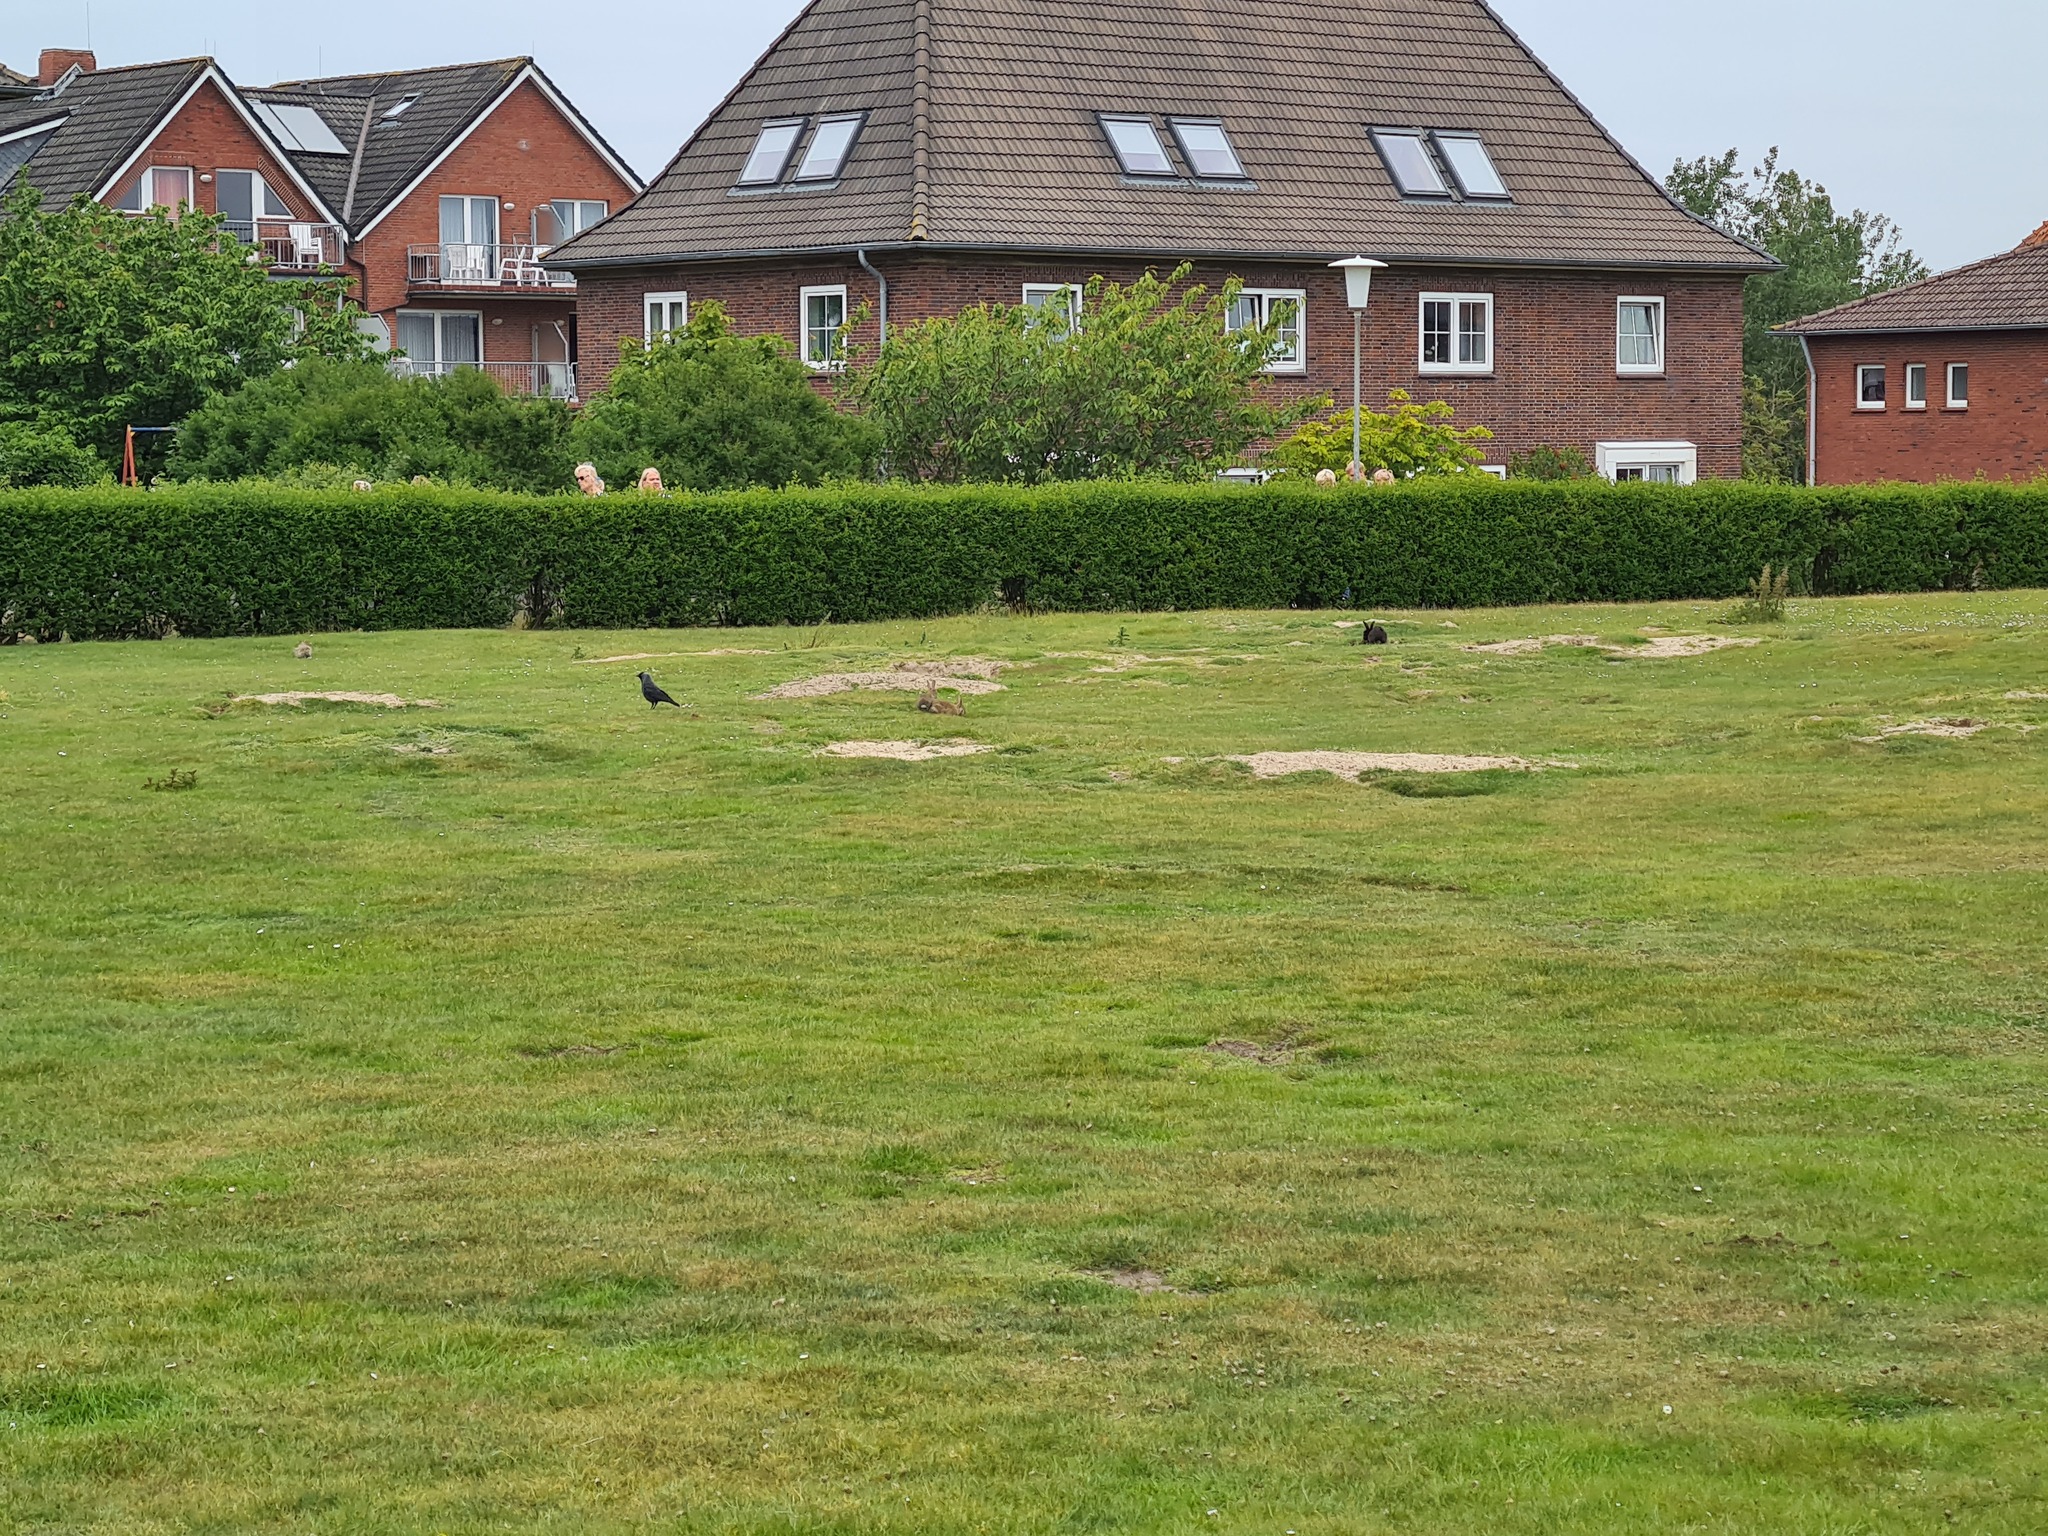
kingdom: Animalia
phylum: Chordata
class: Mammalia
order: Lagomorpha
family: Leporidae
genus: Oryctolagus
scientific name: Oryctolagus cuniculus
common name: European rabbit
